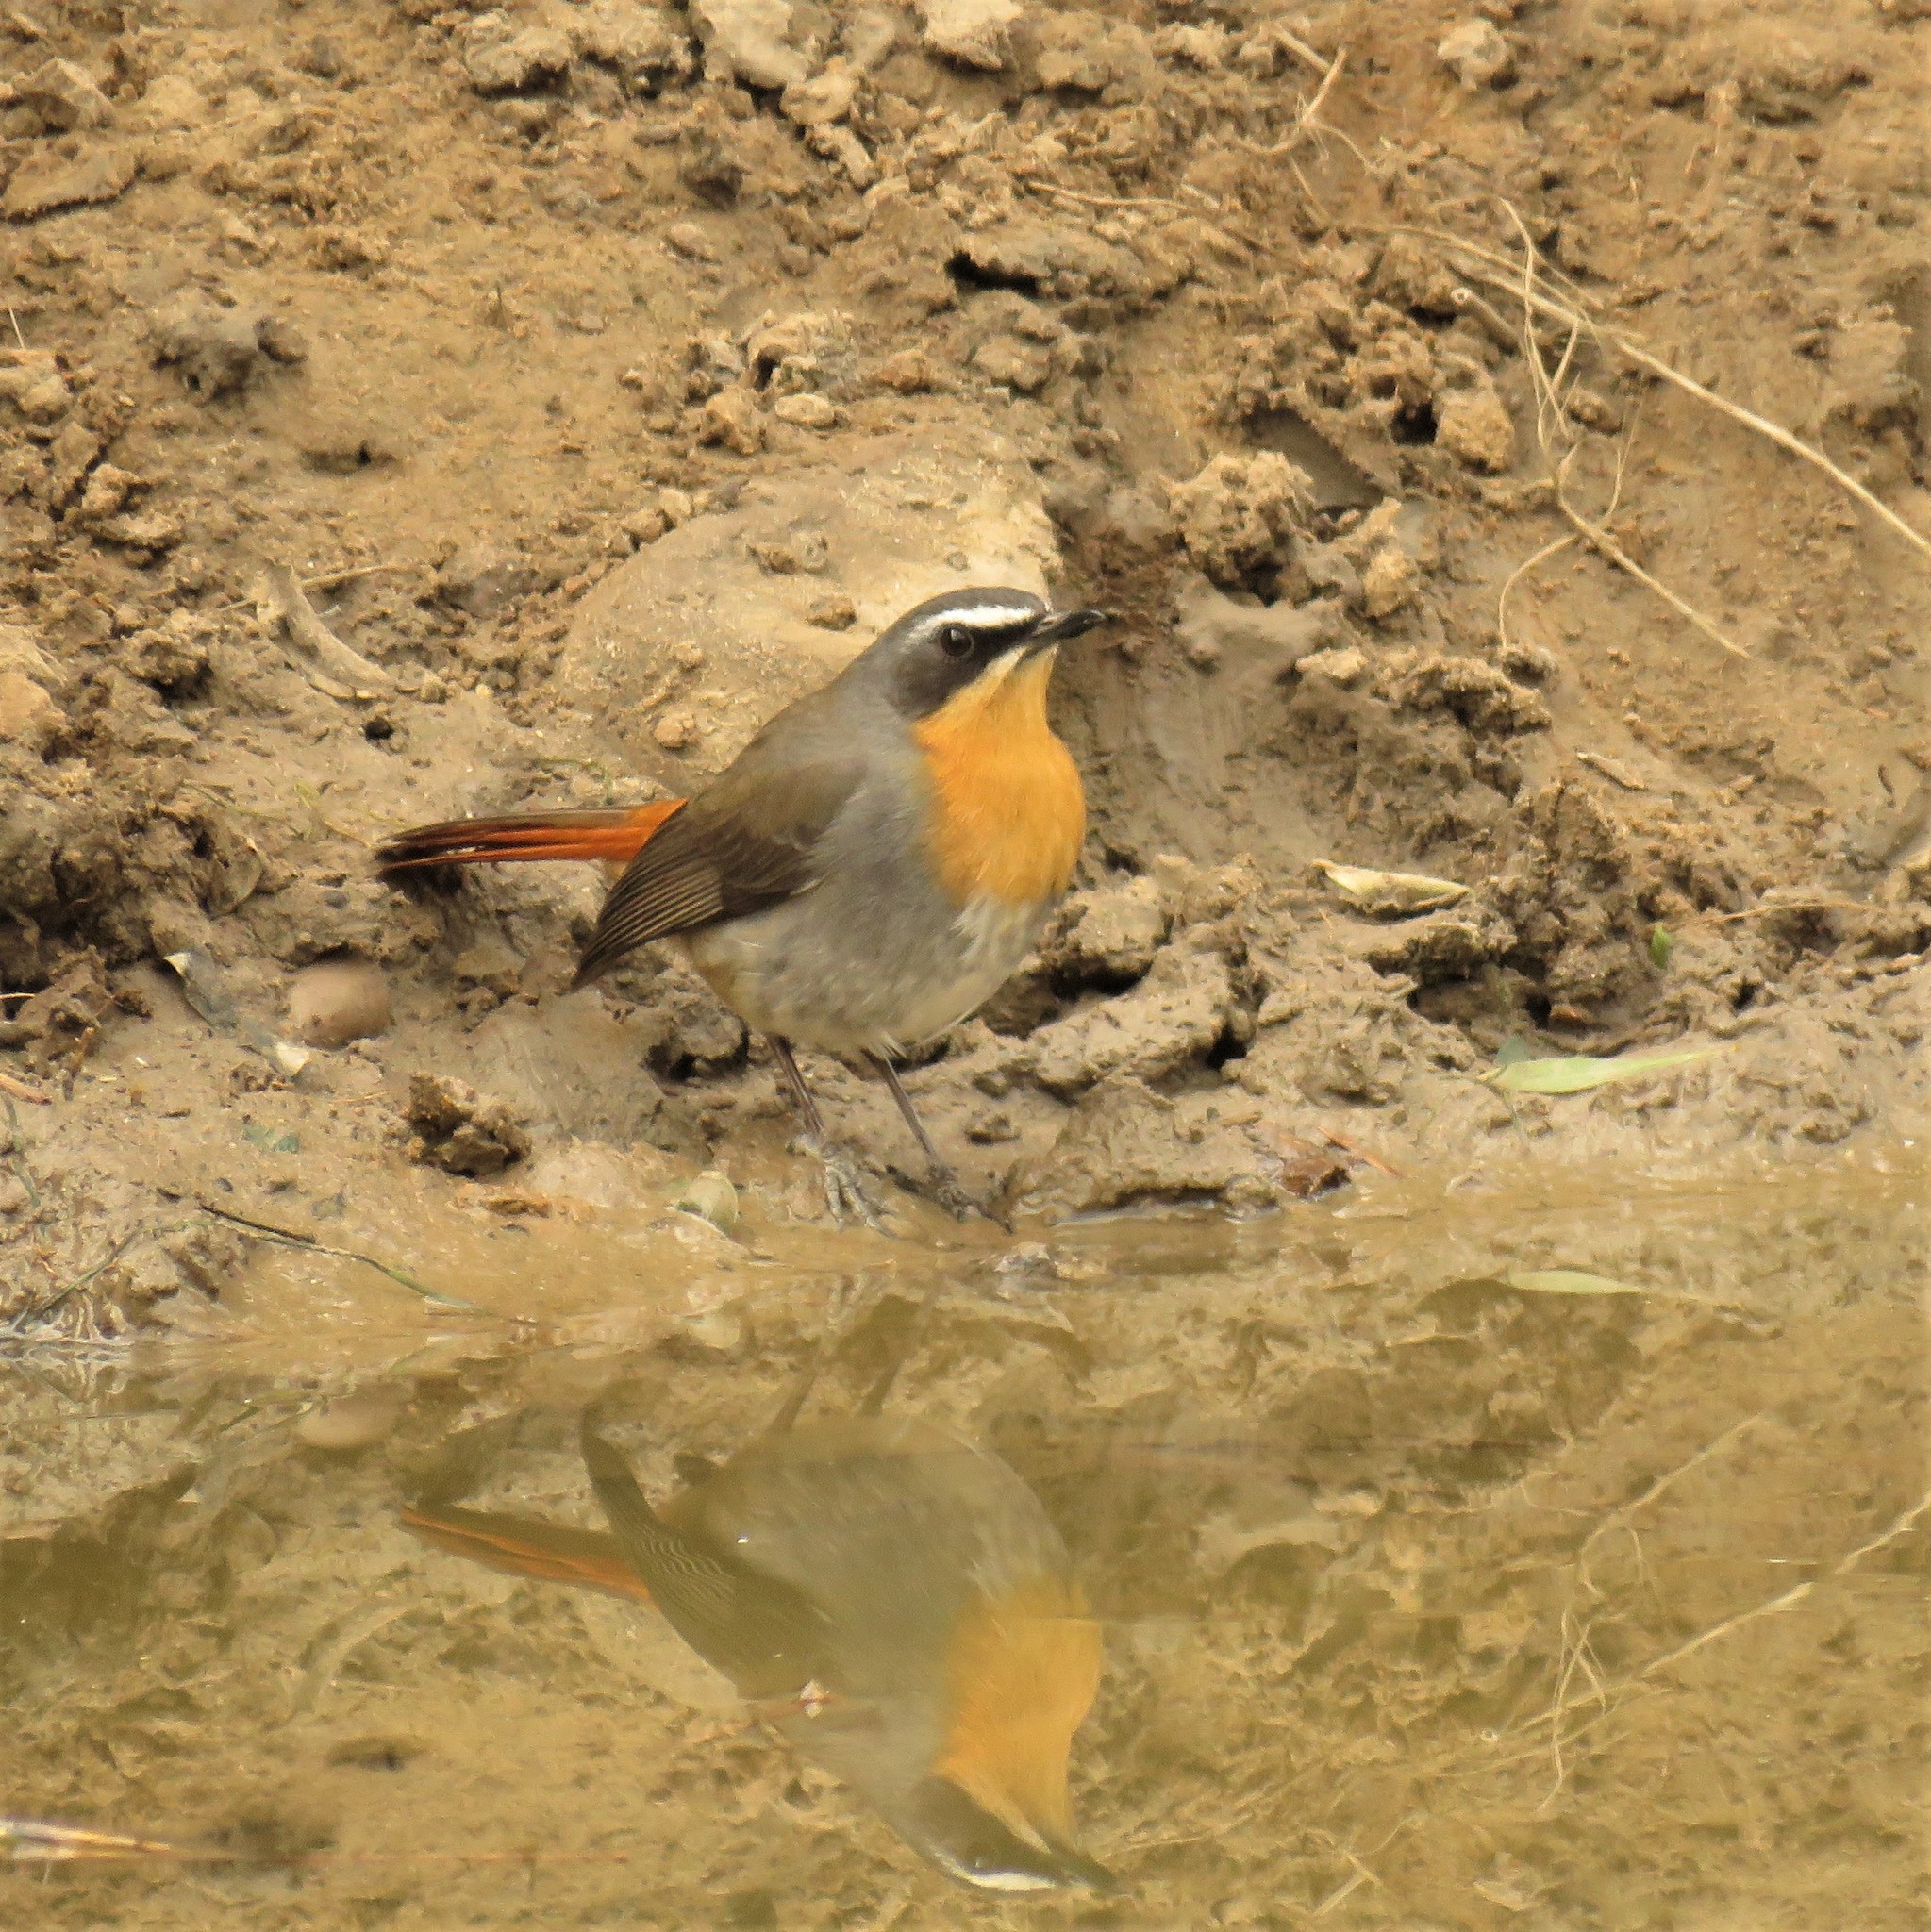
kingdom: Animalia
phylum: Chordata
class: Aves
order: Passeriformes
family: Muscicapidae
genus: Cossypha
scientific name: Cossypha caffra
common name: Cape robin-chat
